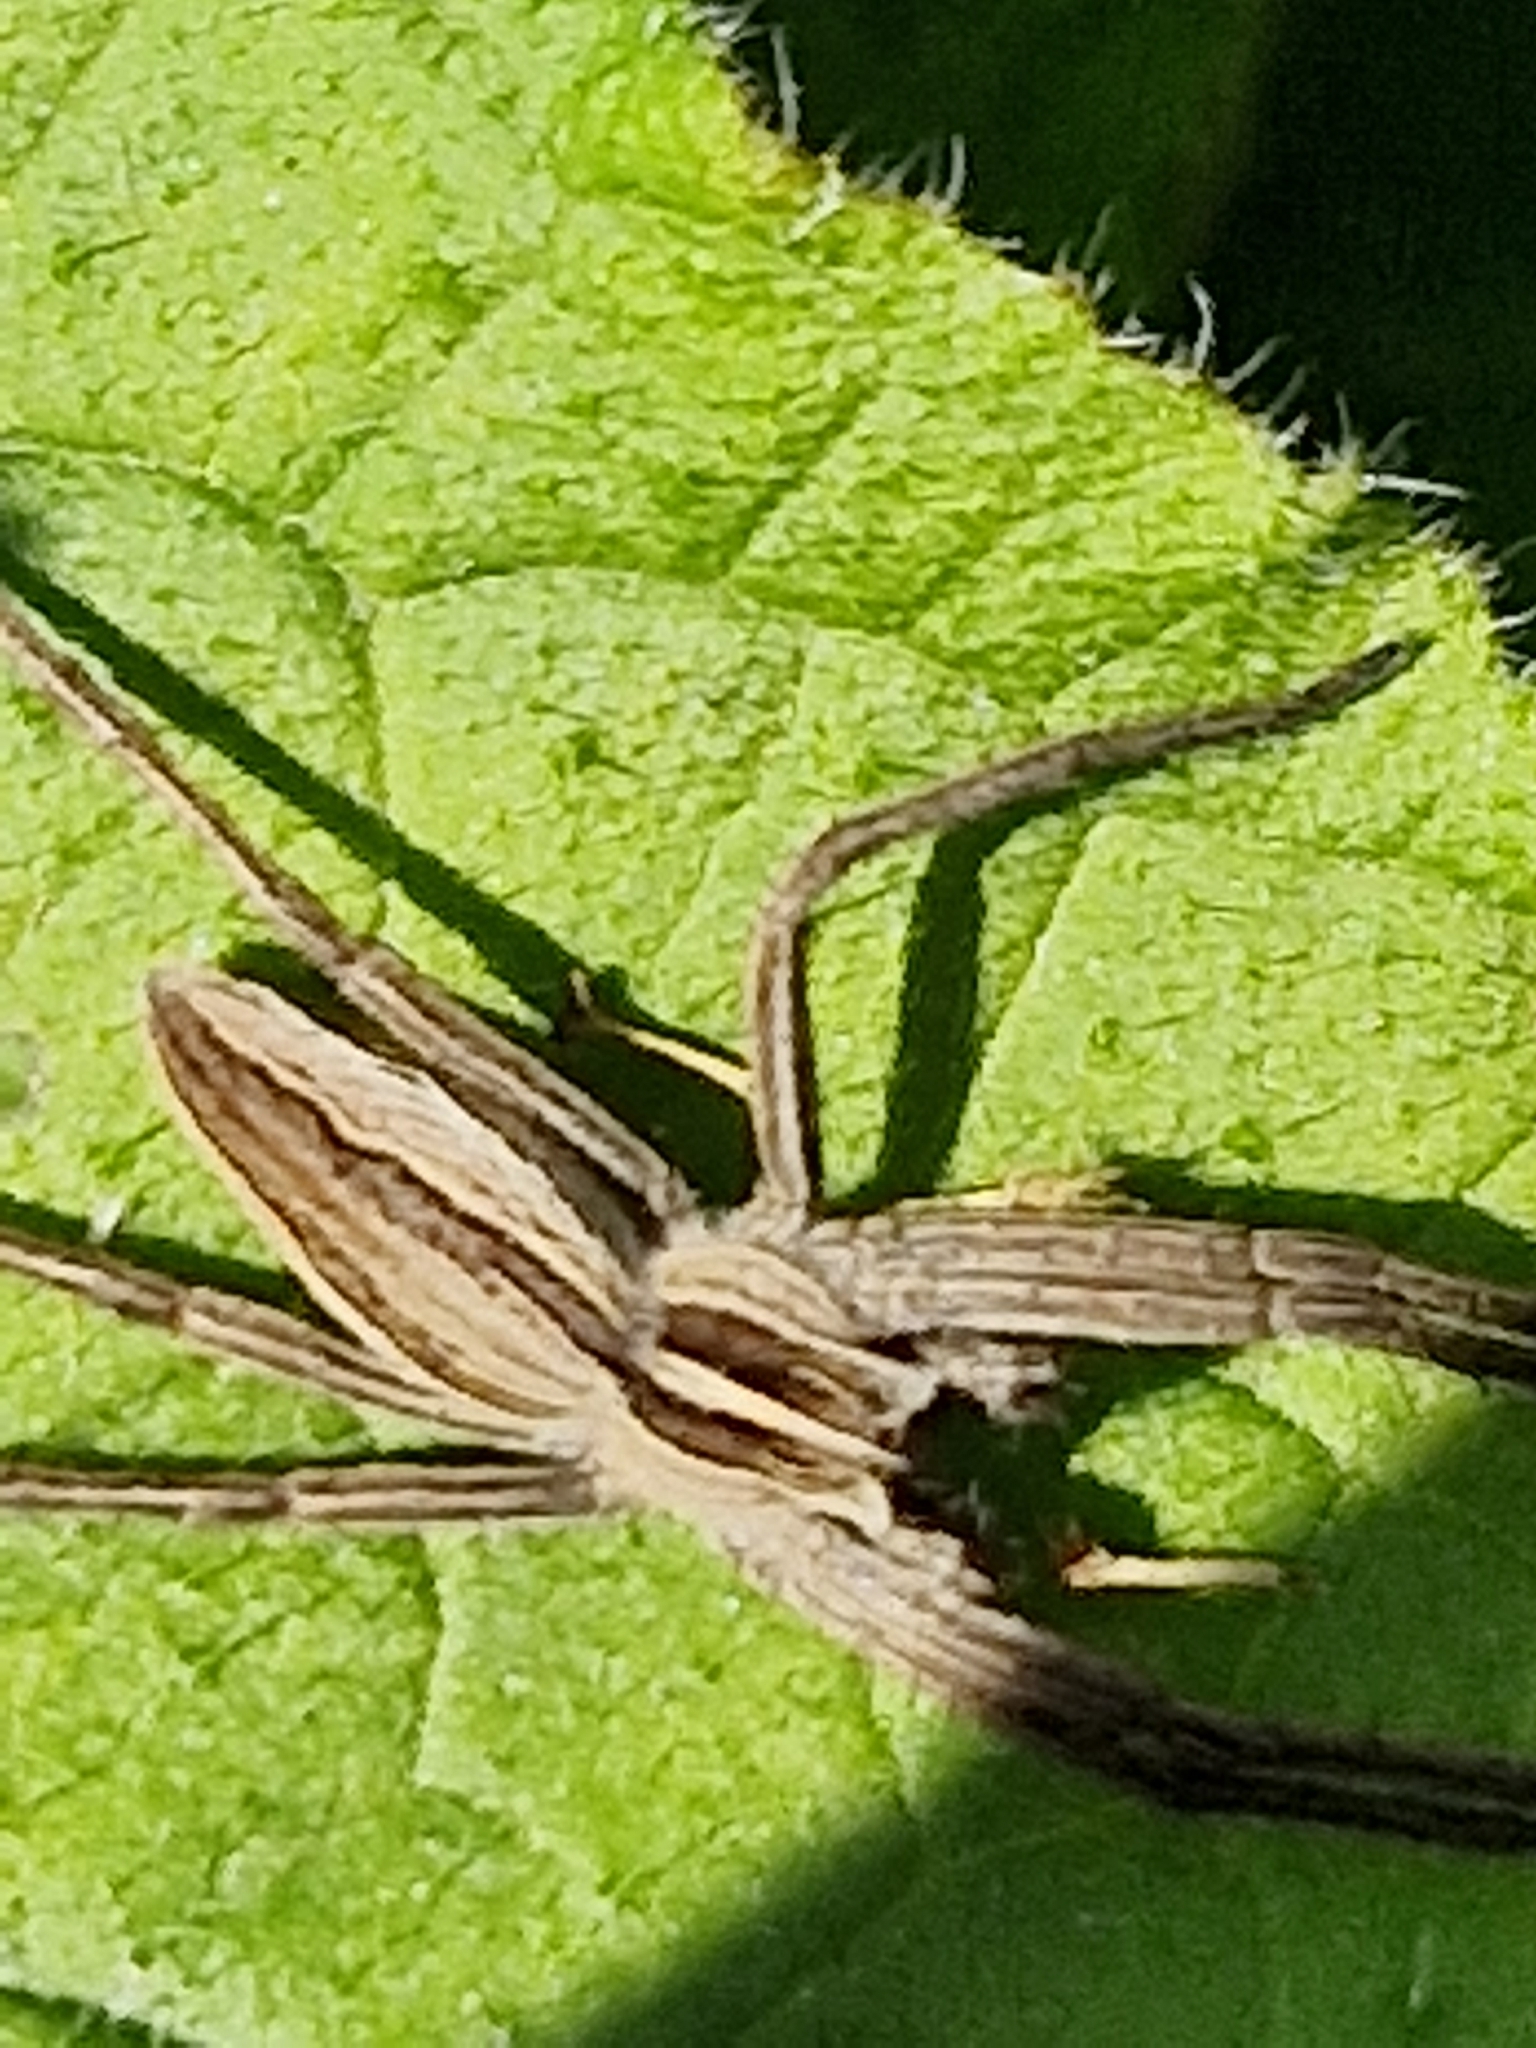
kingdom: Animalia
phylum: Arthropoda
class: Arachnida
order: Araneae
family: Pisauridae
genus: Pisaura
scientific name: Pisaura mirabilis
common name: Tent spider
